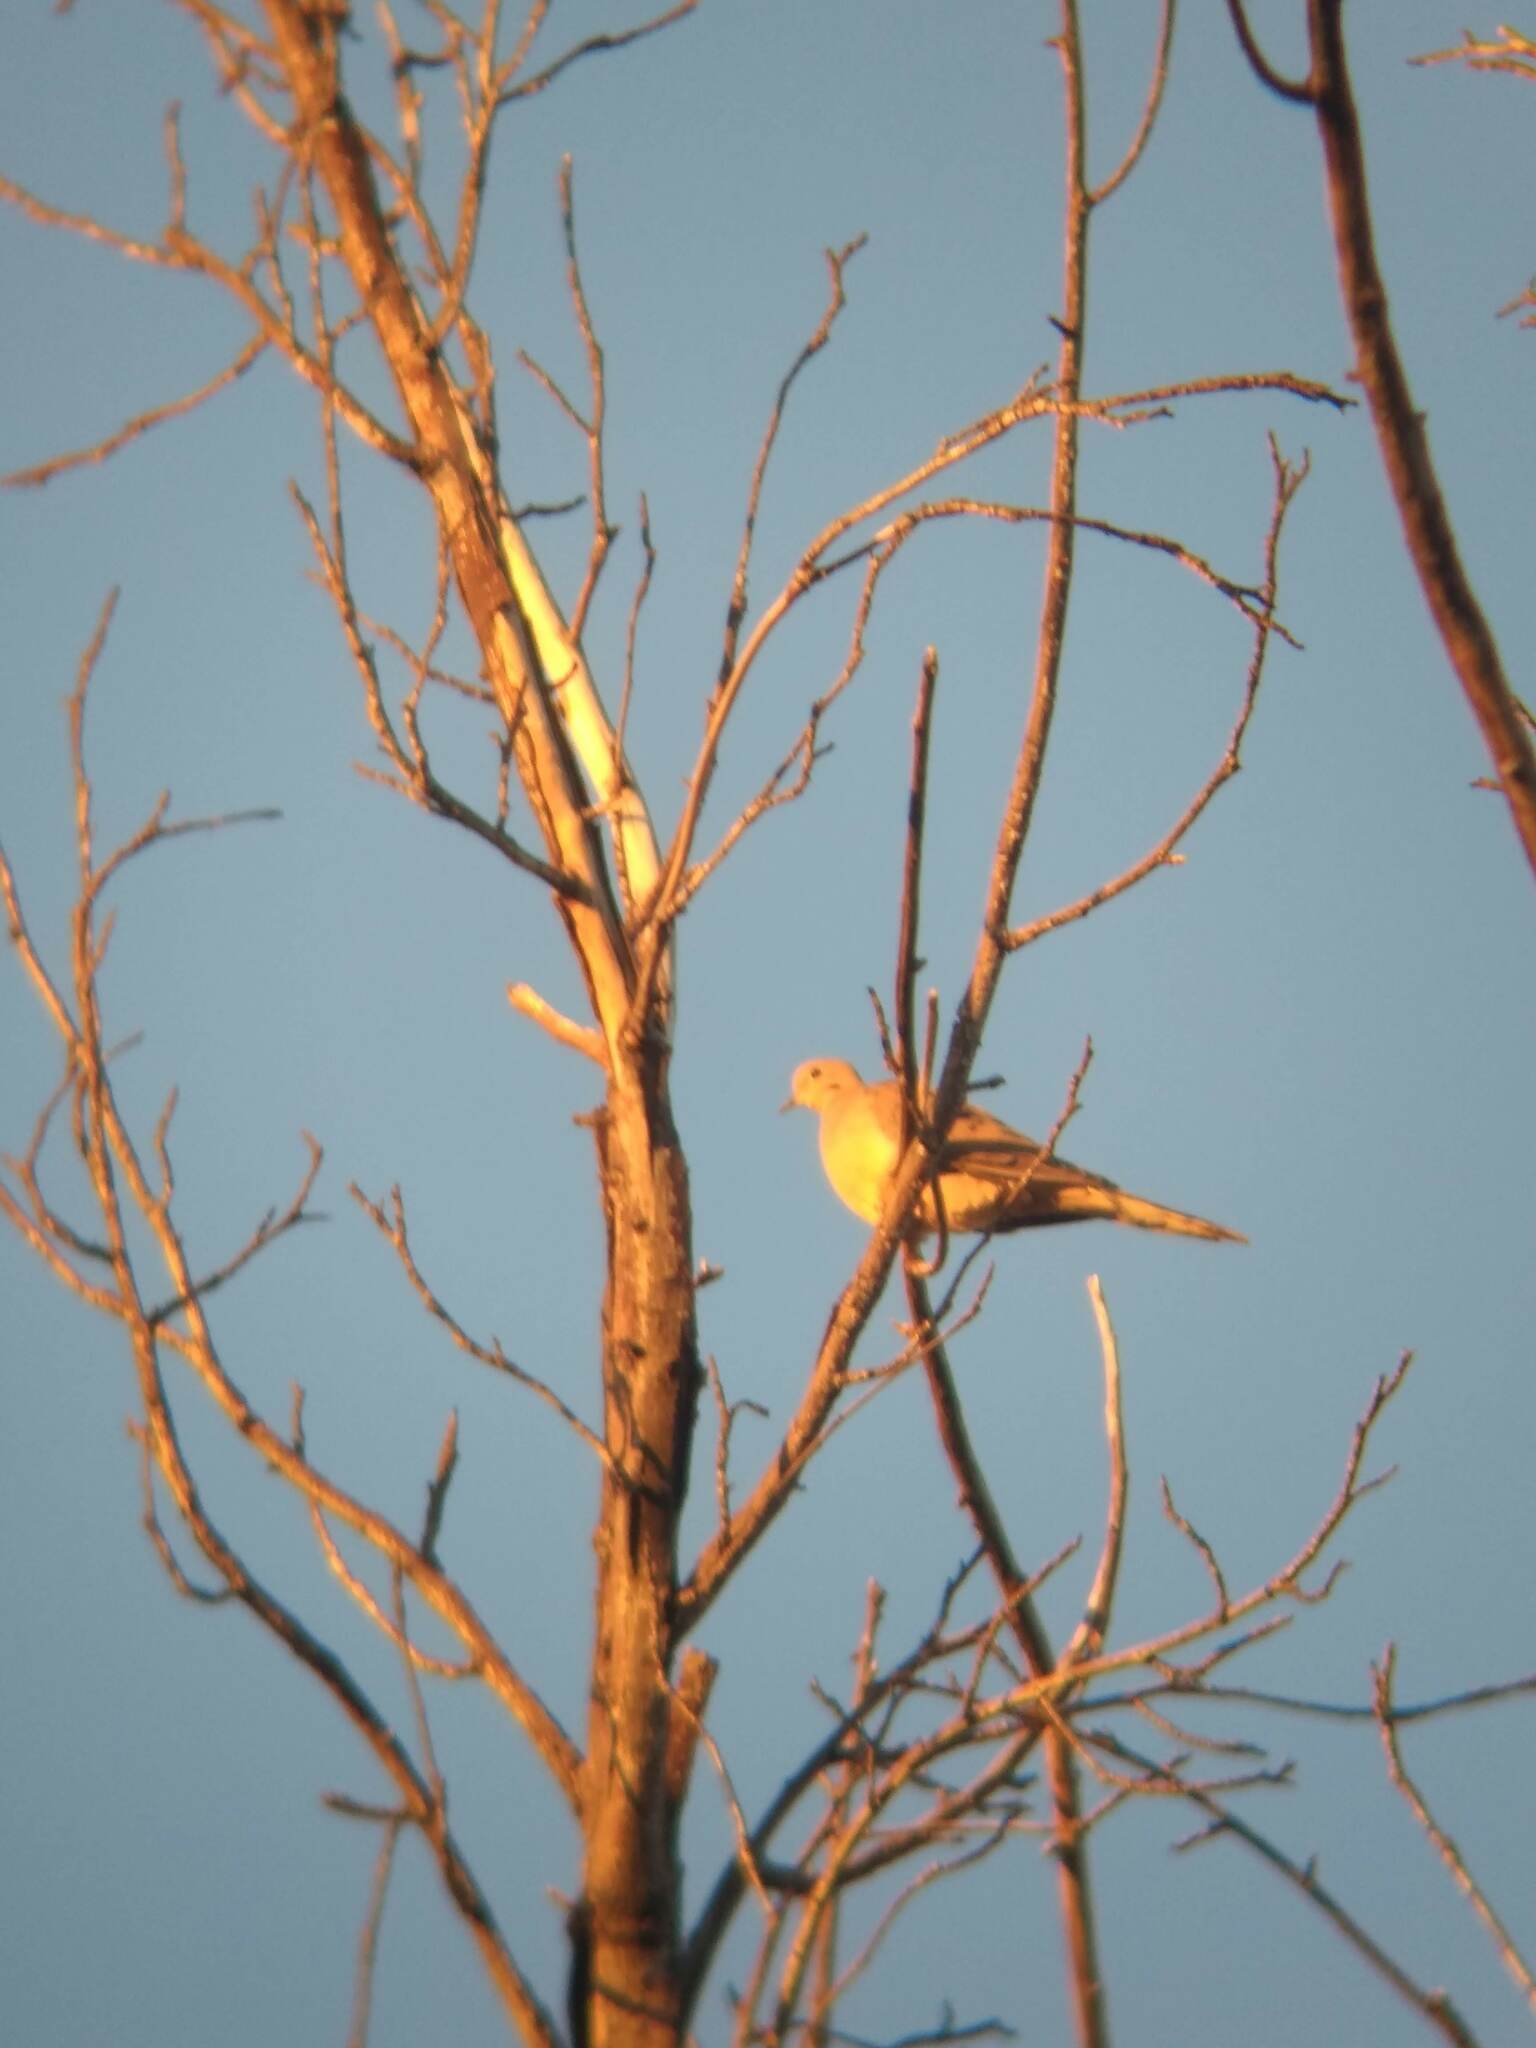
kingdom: Animalia
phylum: Chordata
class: Aves
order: Columbiformes
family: Columbidae
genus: Zenaida
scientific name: Zenaida macroura
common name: Mourning dove
